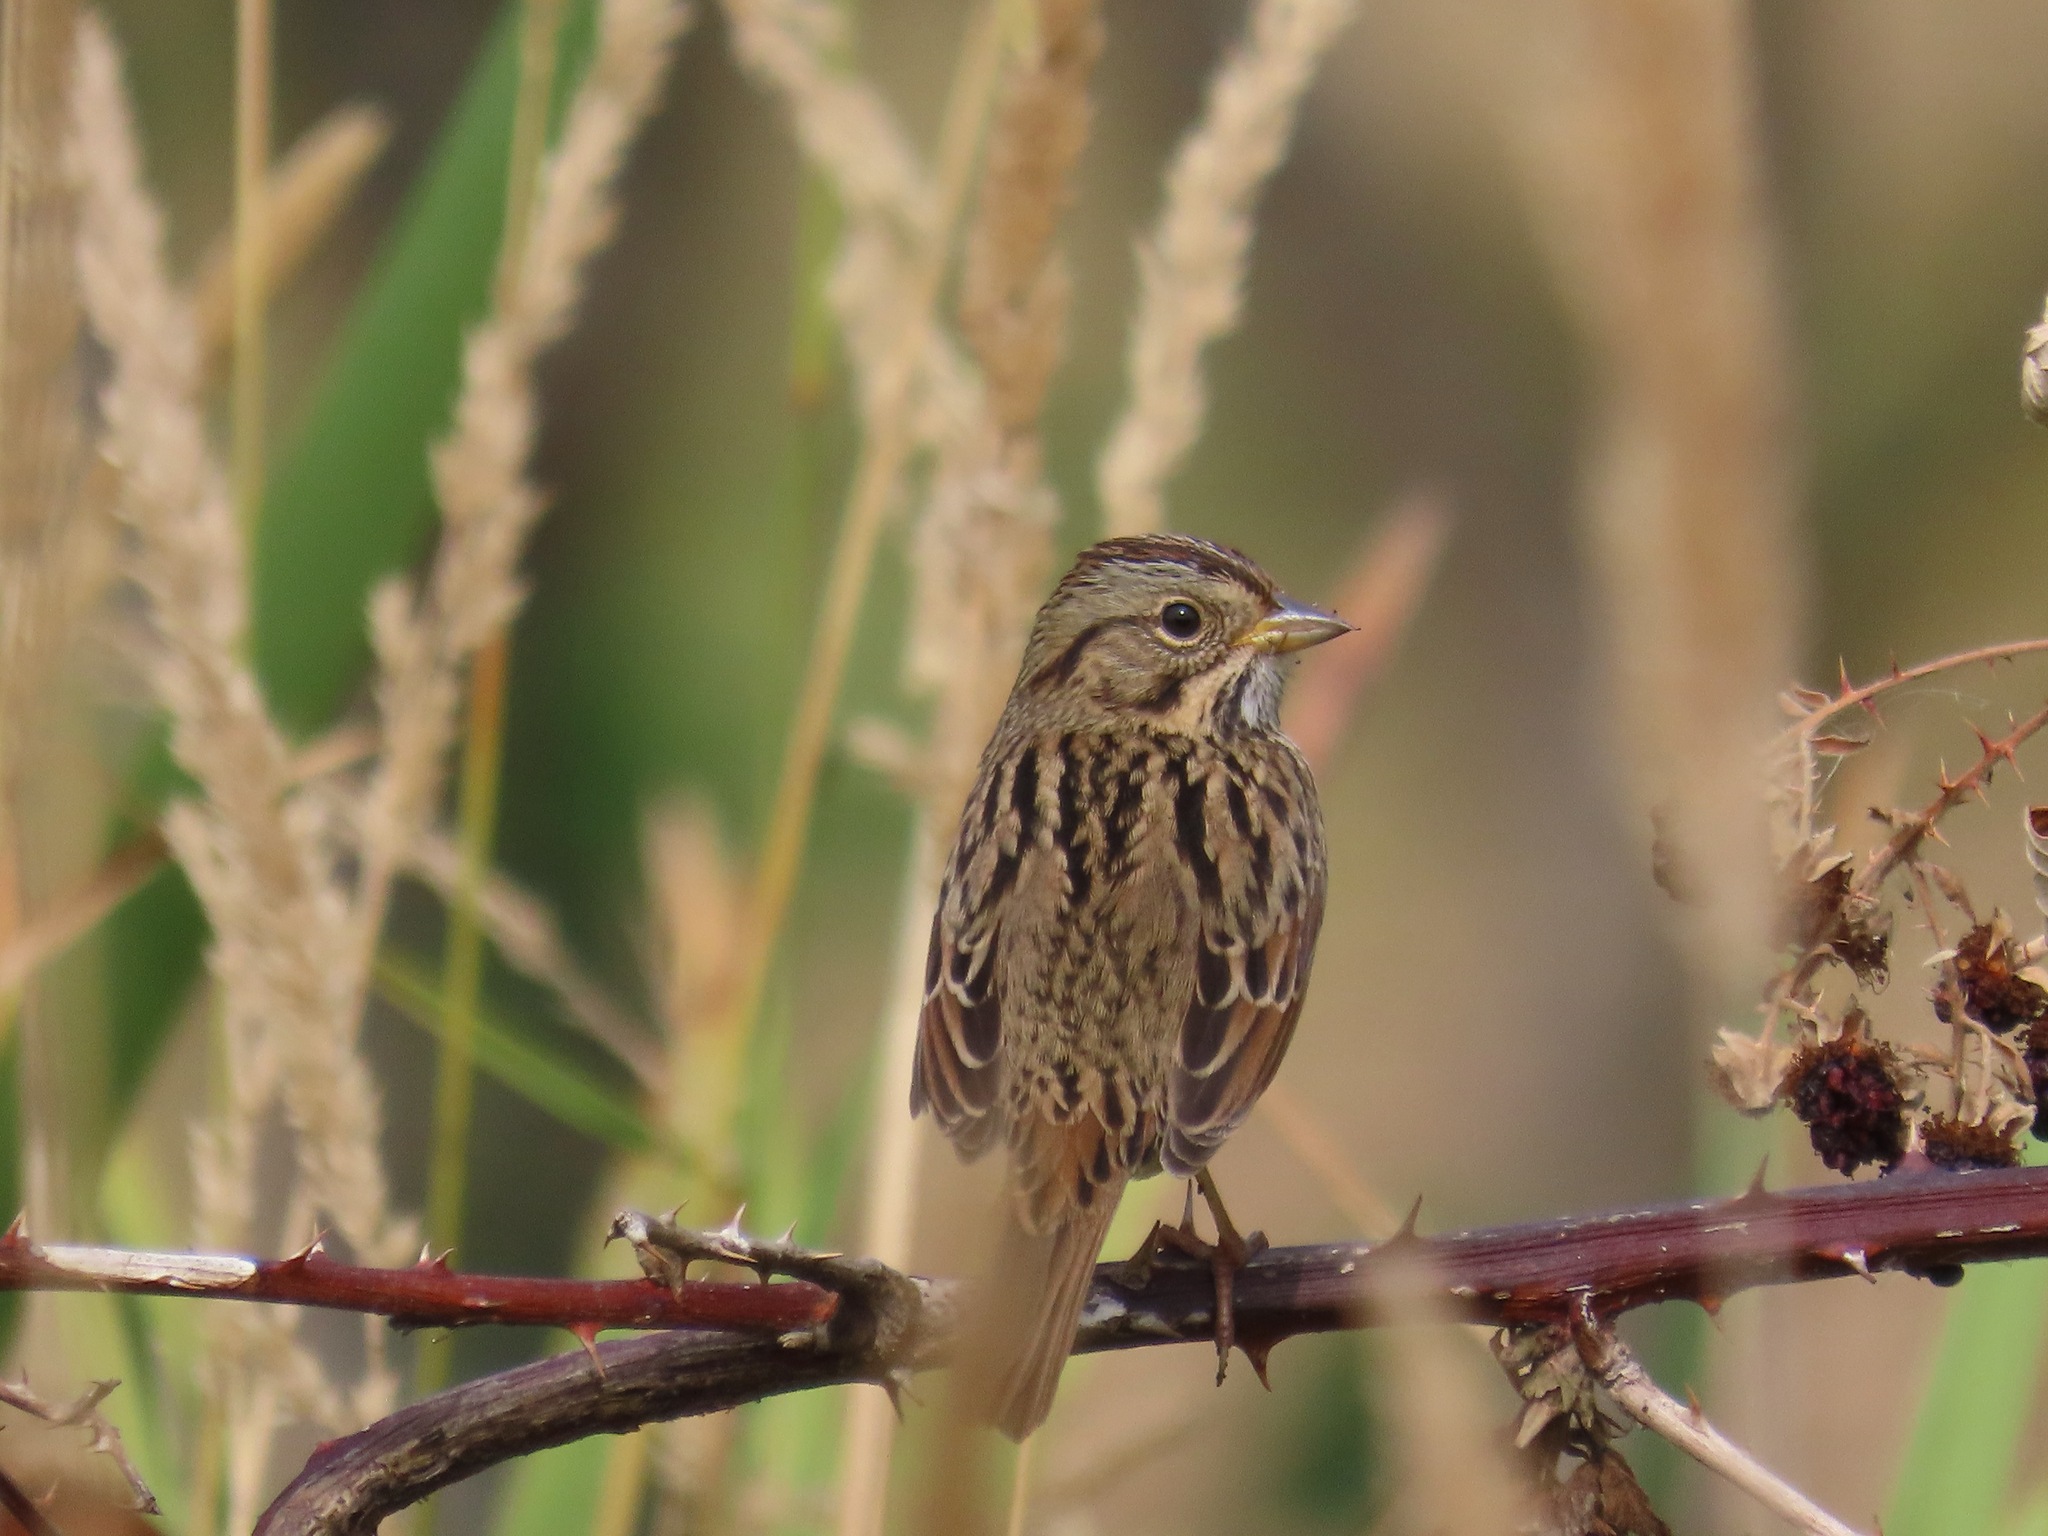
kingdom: Animalia
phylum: Chordata
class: Aves
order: Passeriformes
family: Passerellidae
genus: Melospiza
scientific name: Melospiza lincolnii
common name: Lincoln's sparrow
